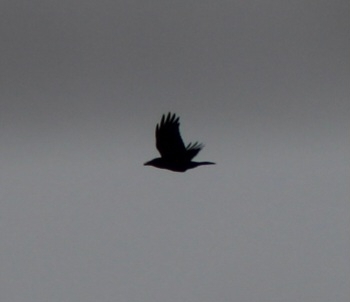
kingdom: Animalia
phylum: Chordata
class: Aves
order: Passeriformes
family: Corvidae
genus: Corvus
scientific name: Corvus corax
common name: Common raven
